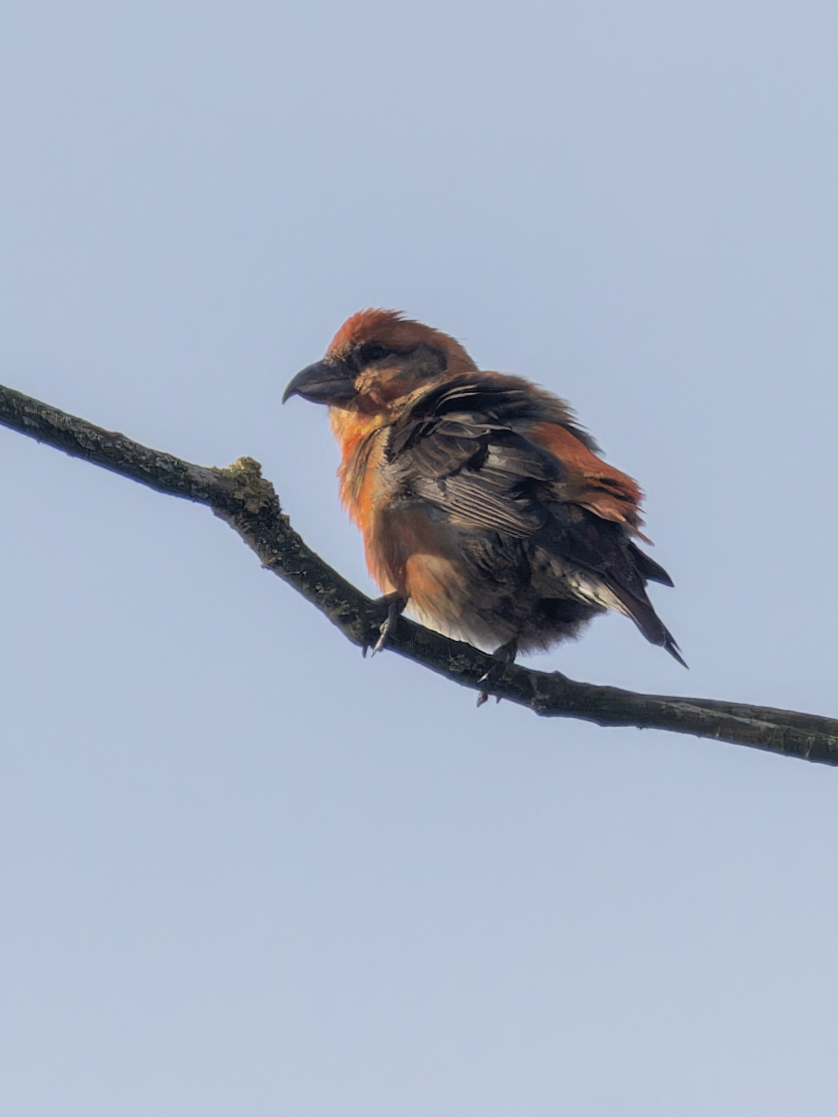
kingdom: Animalia
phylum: Chordata
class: Aves
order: Passeriformes
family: Fringillidae
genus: Loxia
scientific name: Loxia curvirostra
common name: Red crossbill
